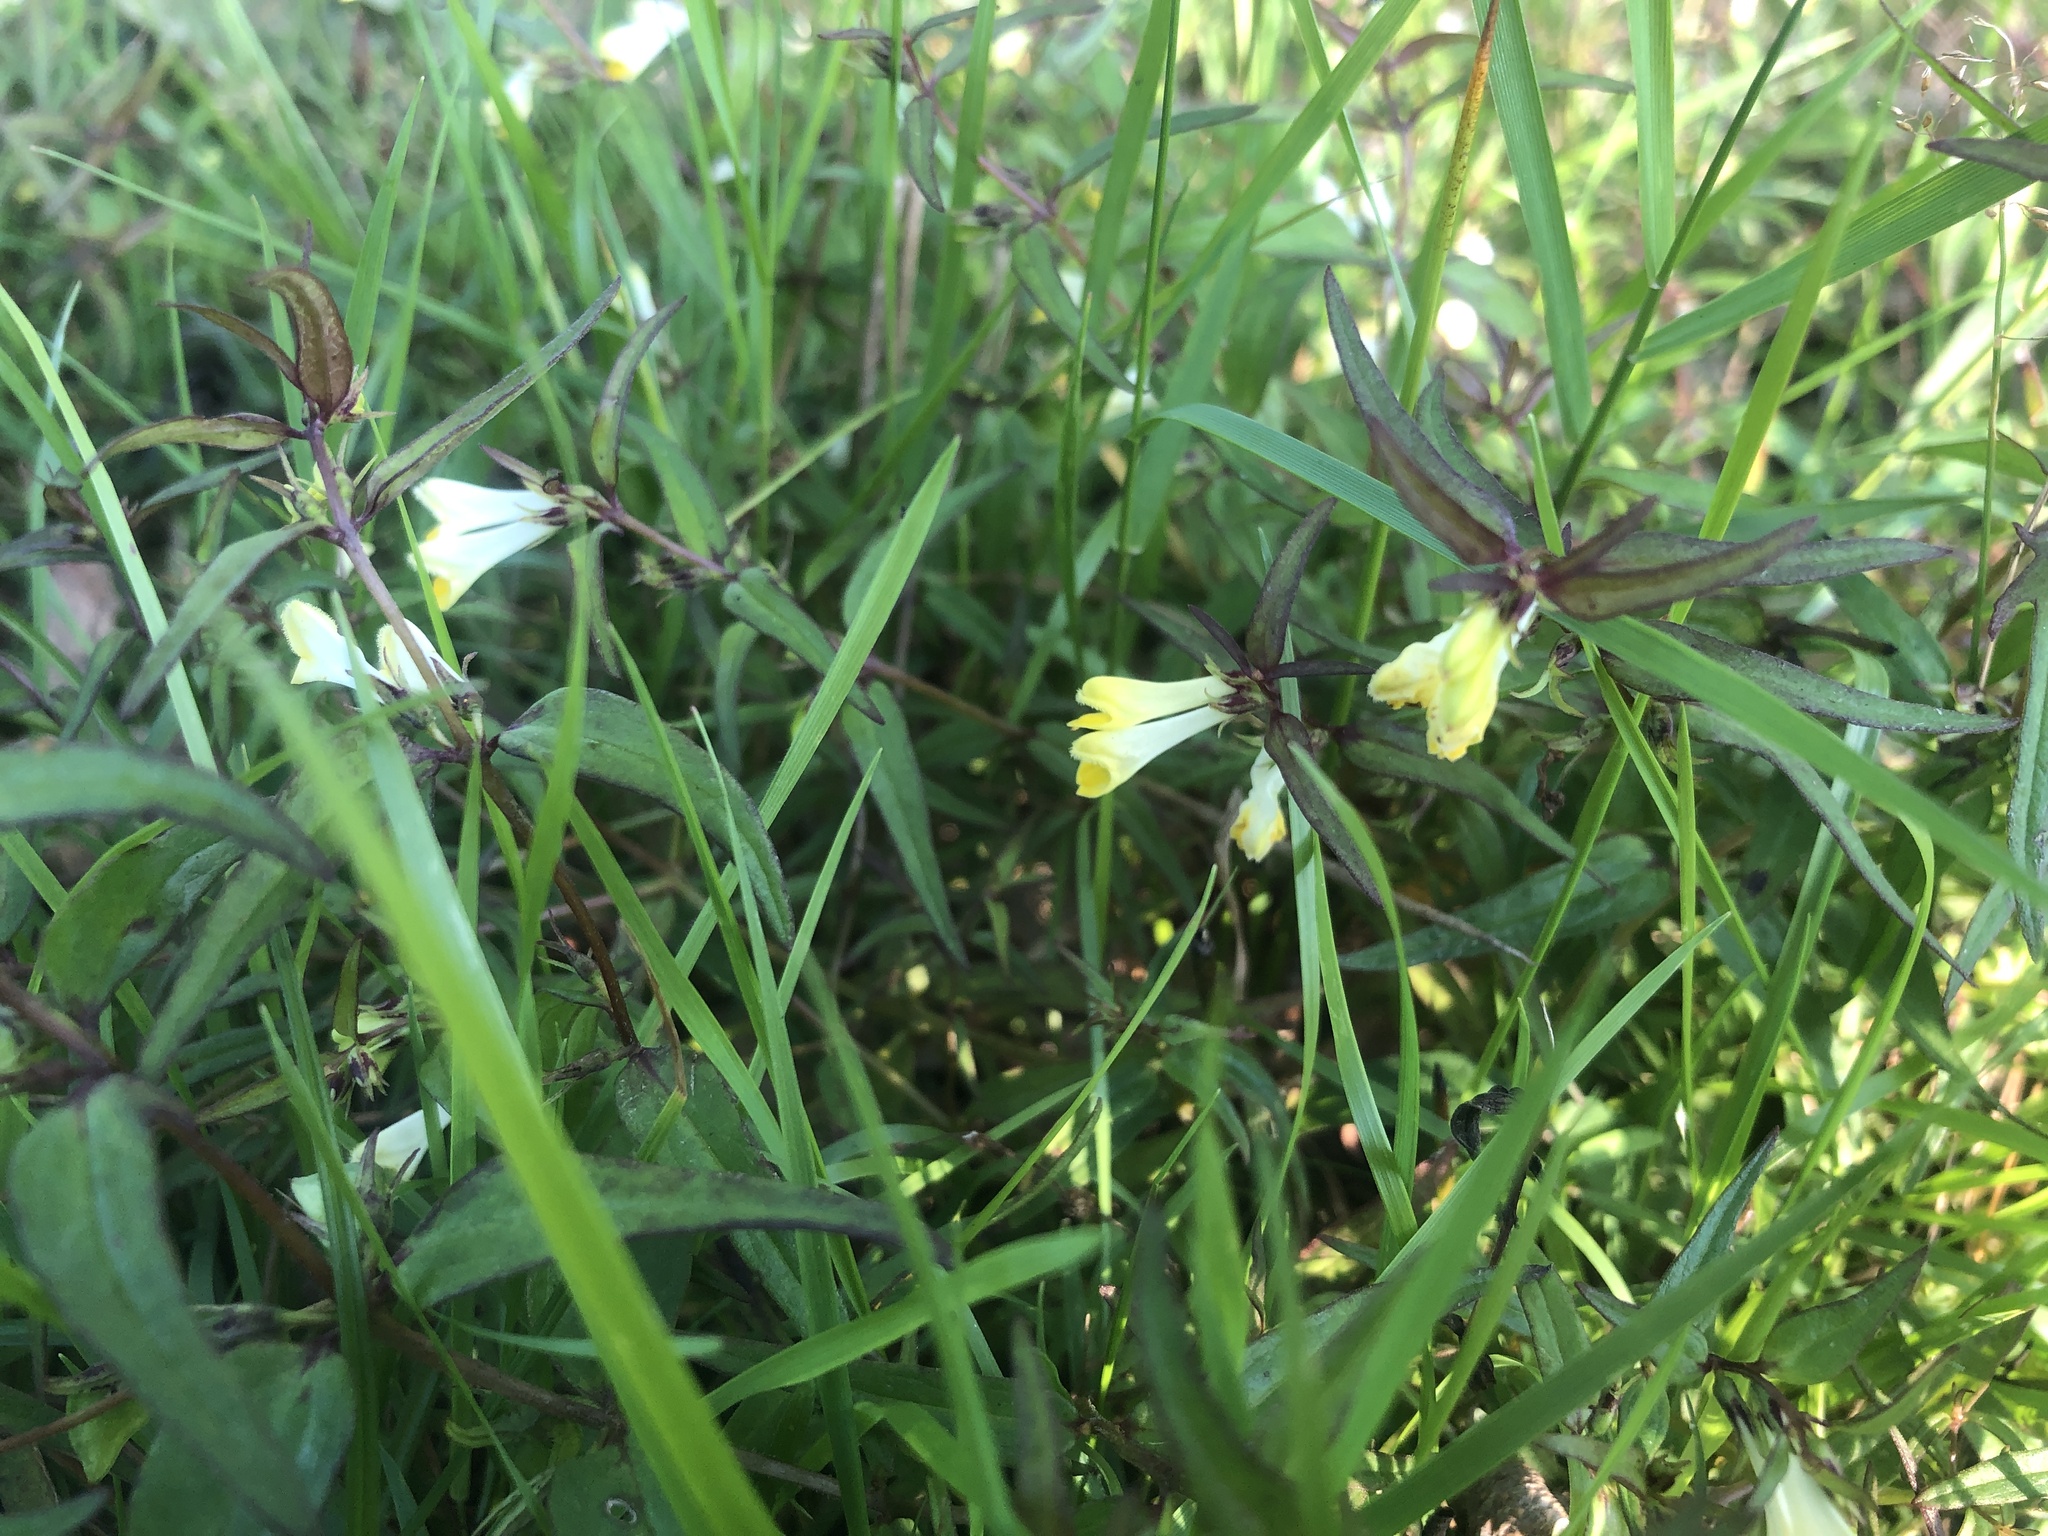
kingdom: Plantae
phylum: Tracheophyta
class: Magnoliopsida
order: Lamiales
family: Orobanchaceae
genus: Melampyrum
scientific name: Melampyrum pratense
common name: Common cow-wheat
